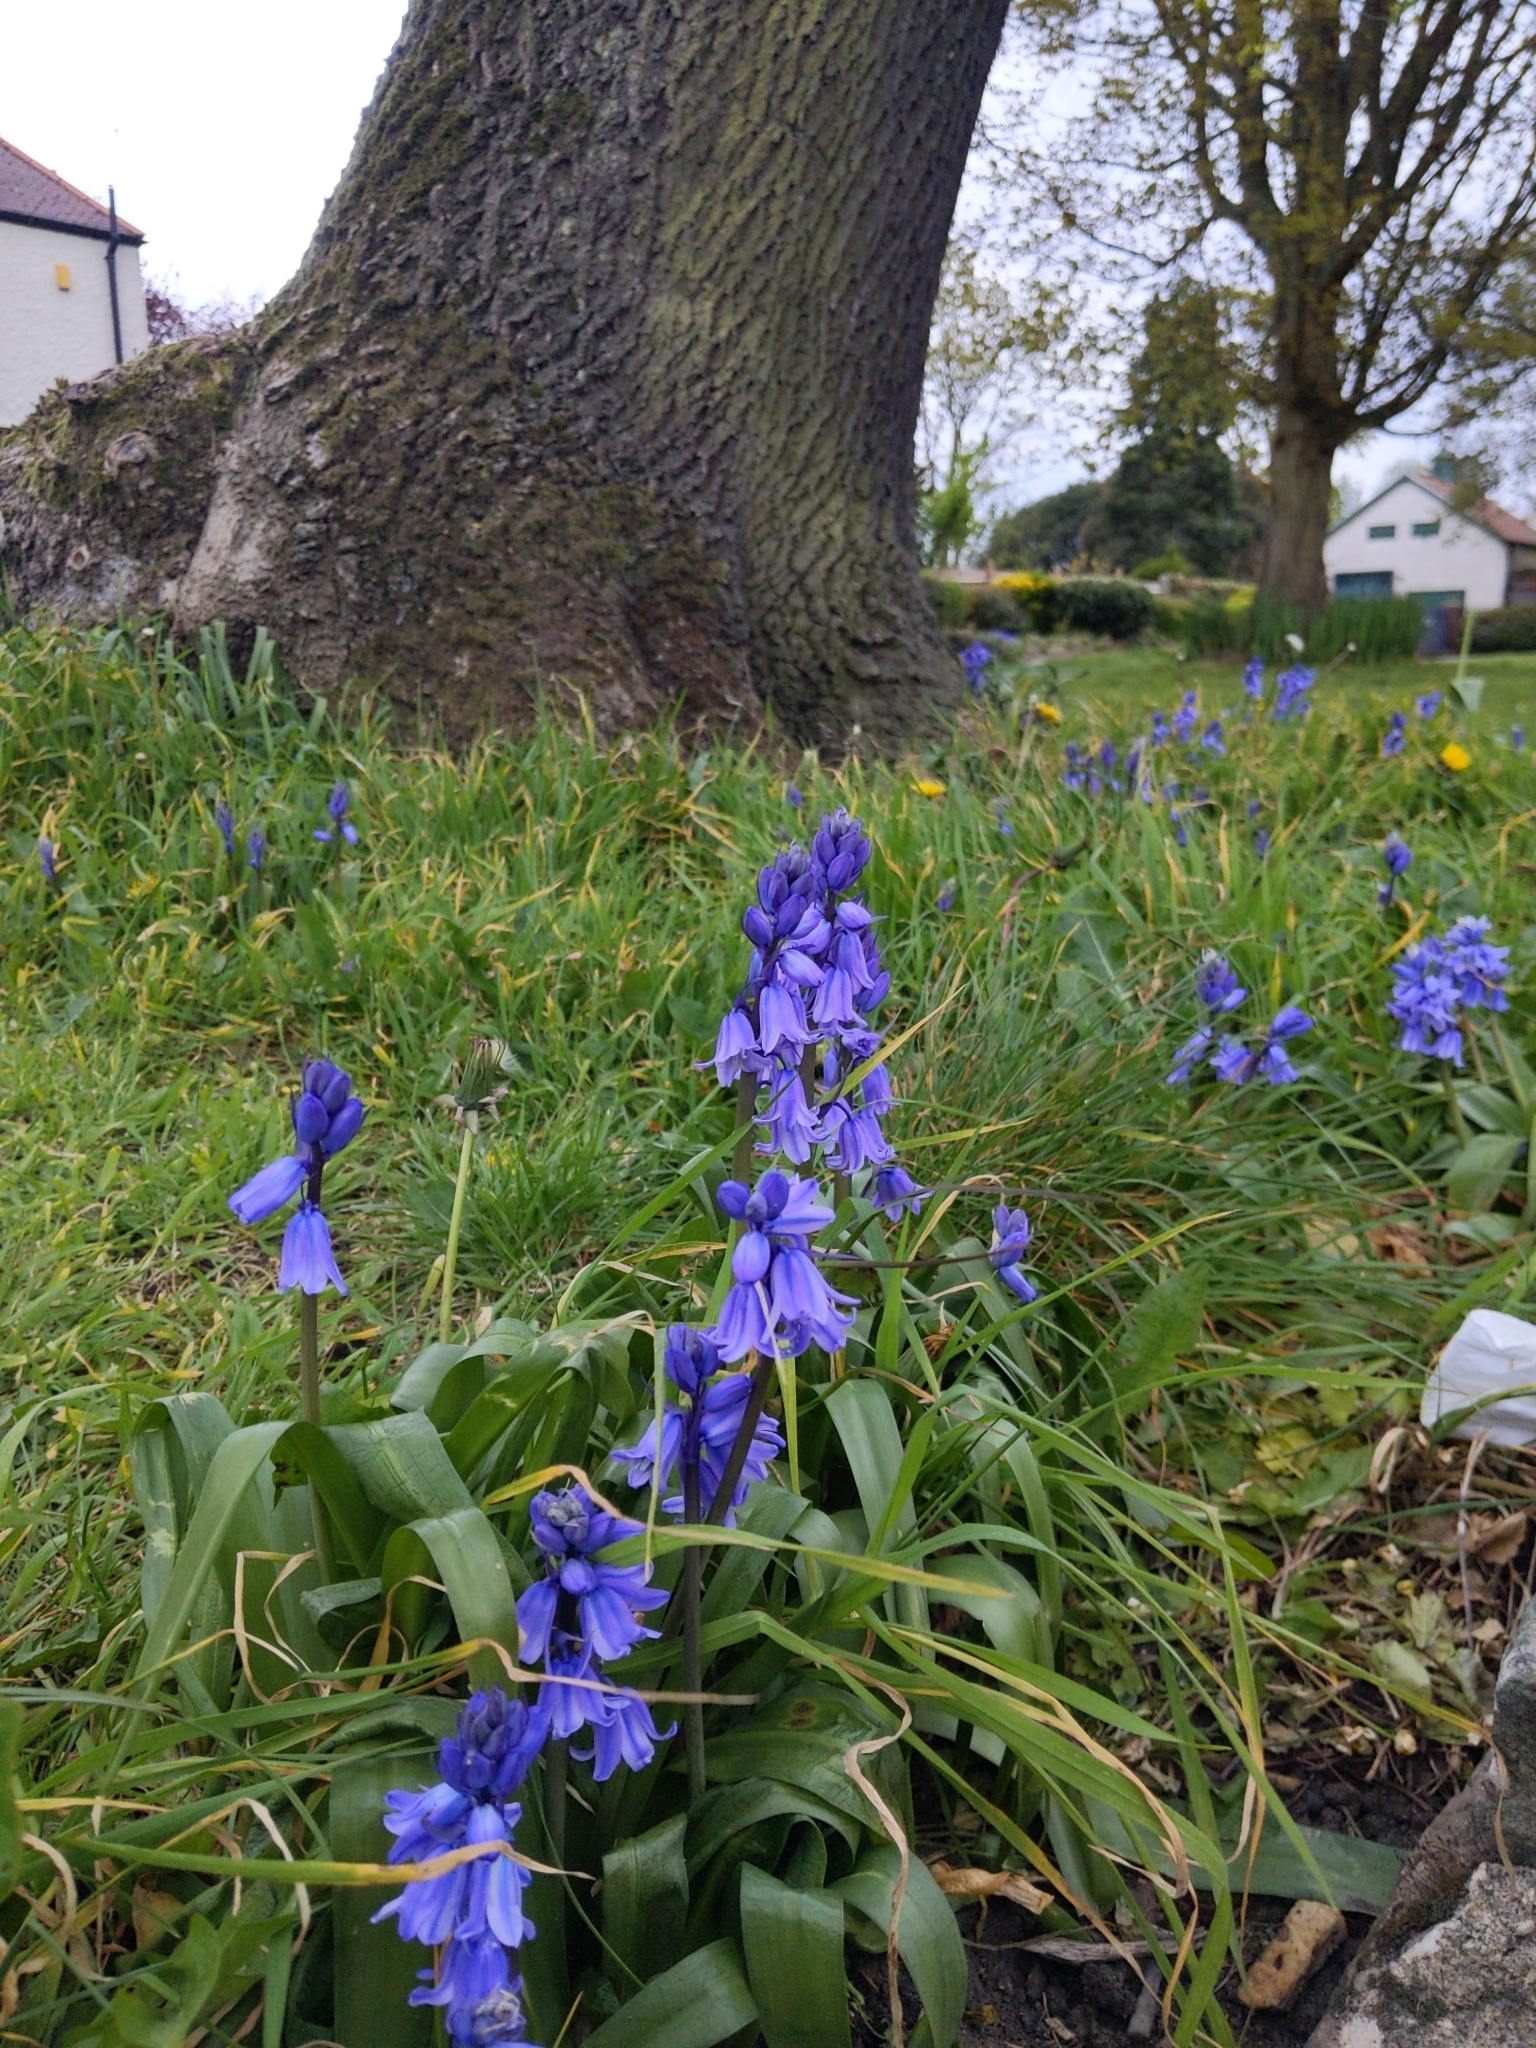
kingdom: Plantae
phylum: Tracheophyta
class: Liliopsida
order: Asparagales
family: Asparagaceae
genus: Hyacinthoides
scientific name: Hyacinthoides massartiana
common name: Hyacinthoides
